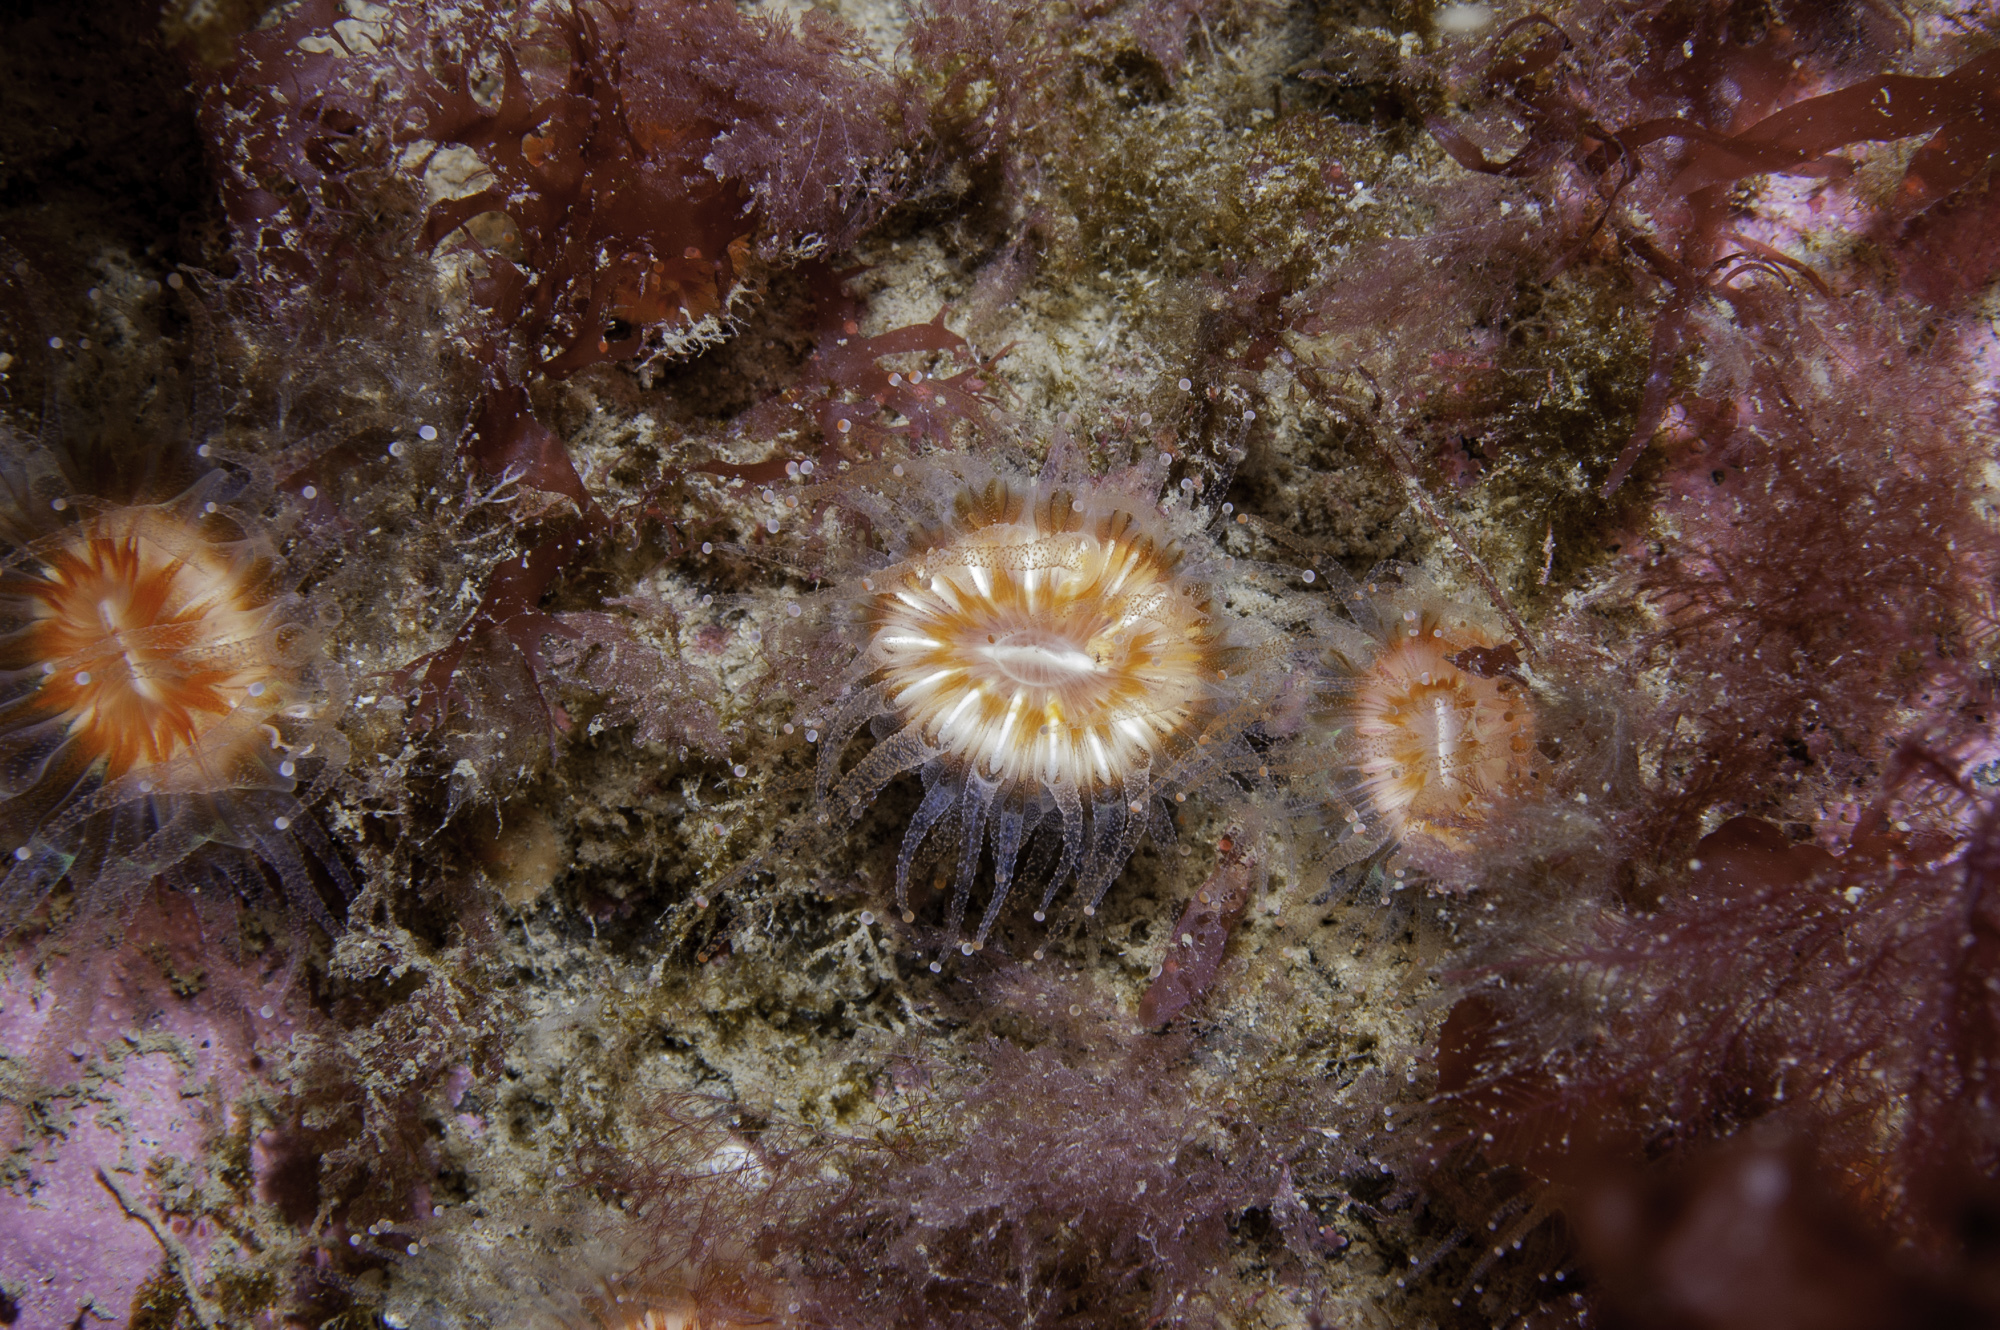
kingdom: Animalia
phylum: Cnidaria
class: Anthozoa
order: Scleractinia
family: Caryophylliidae
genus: Caryophyllia
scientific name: Caryophyllia smithii
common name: Devonshire cup coral
